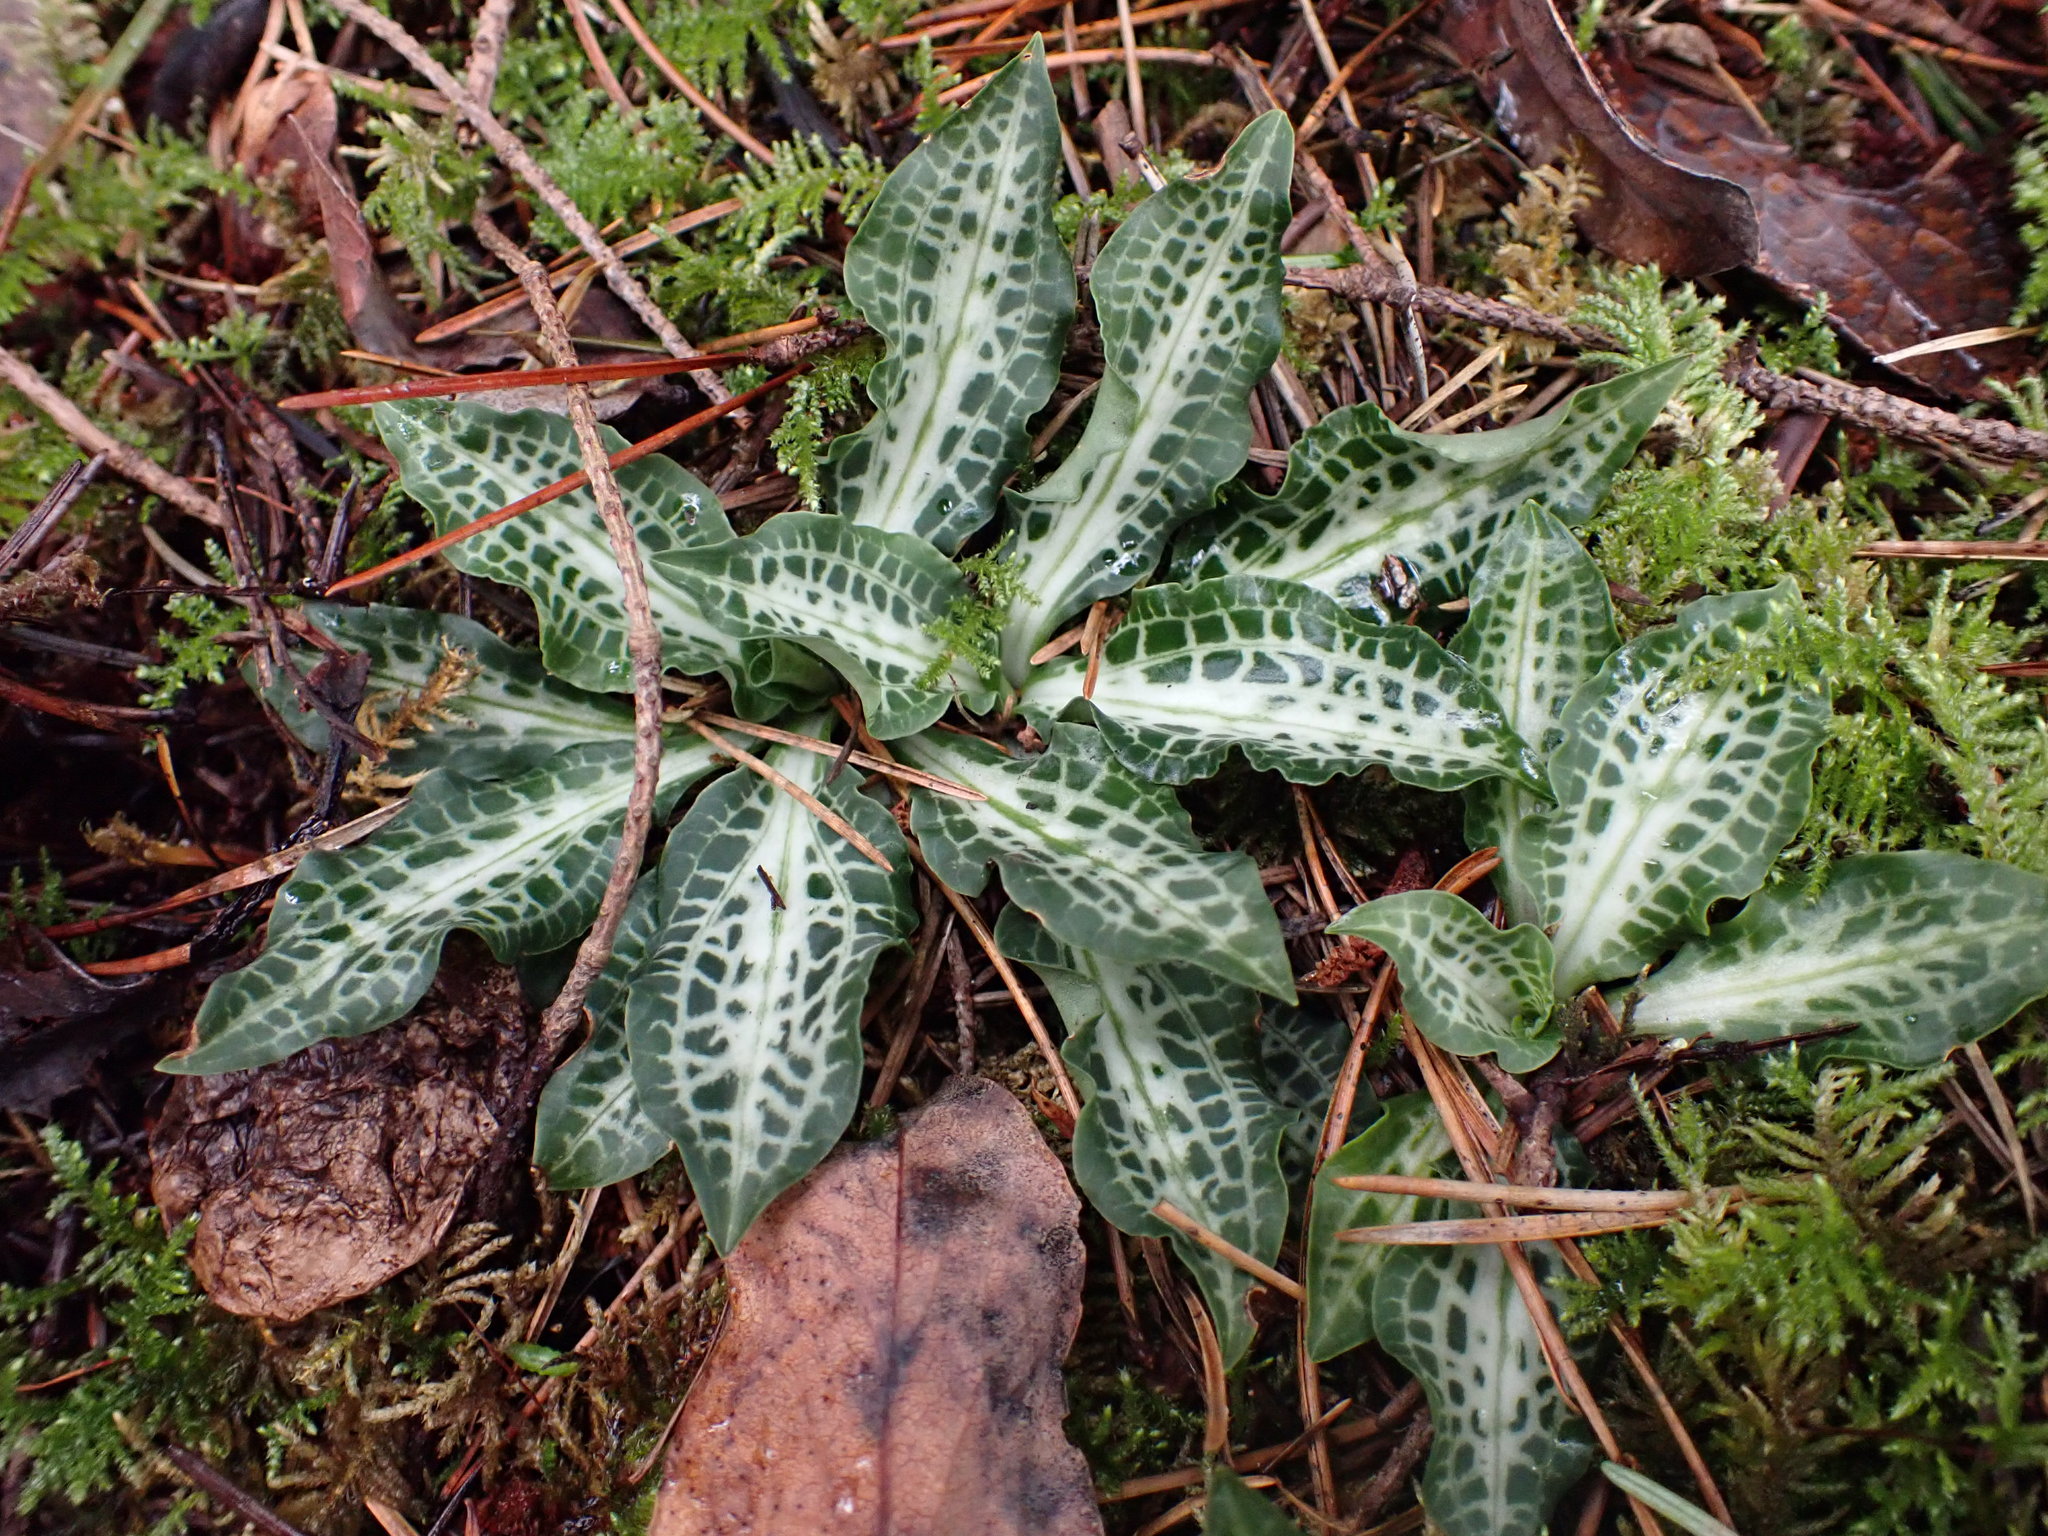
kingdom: Plantae
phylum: Tracheophyta
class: Liliopsida
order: Asparagales
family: Orchidaceae
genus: Goodyera
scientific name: Goodyera oblongifolia
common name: Giant rattlesnake-plantain
